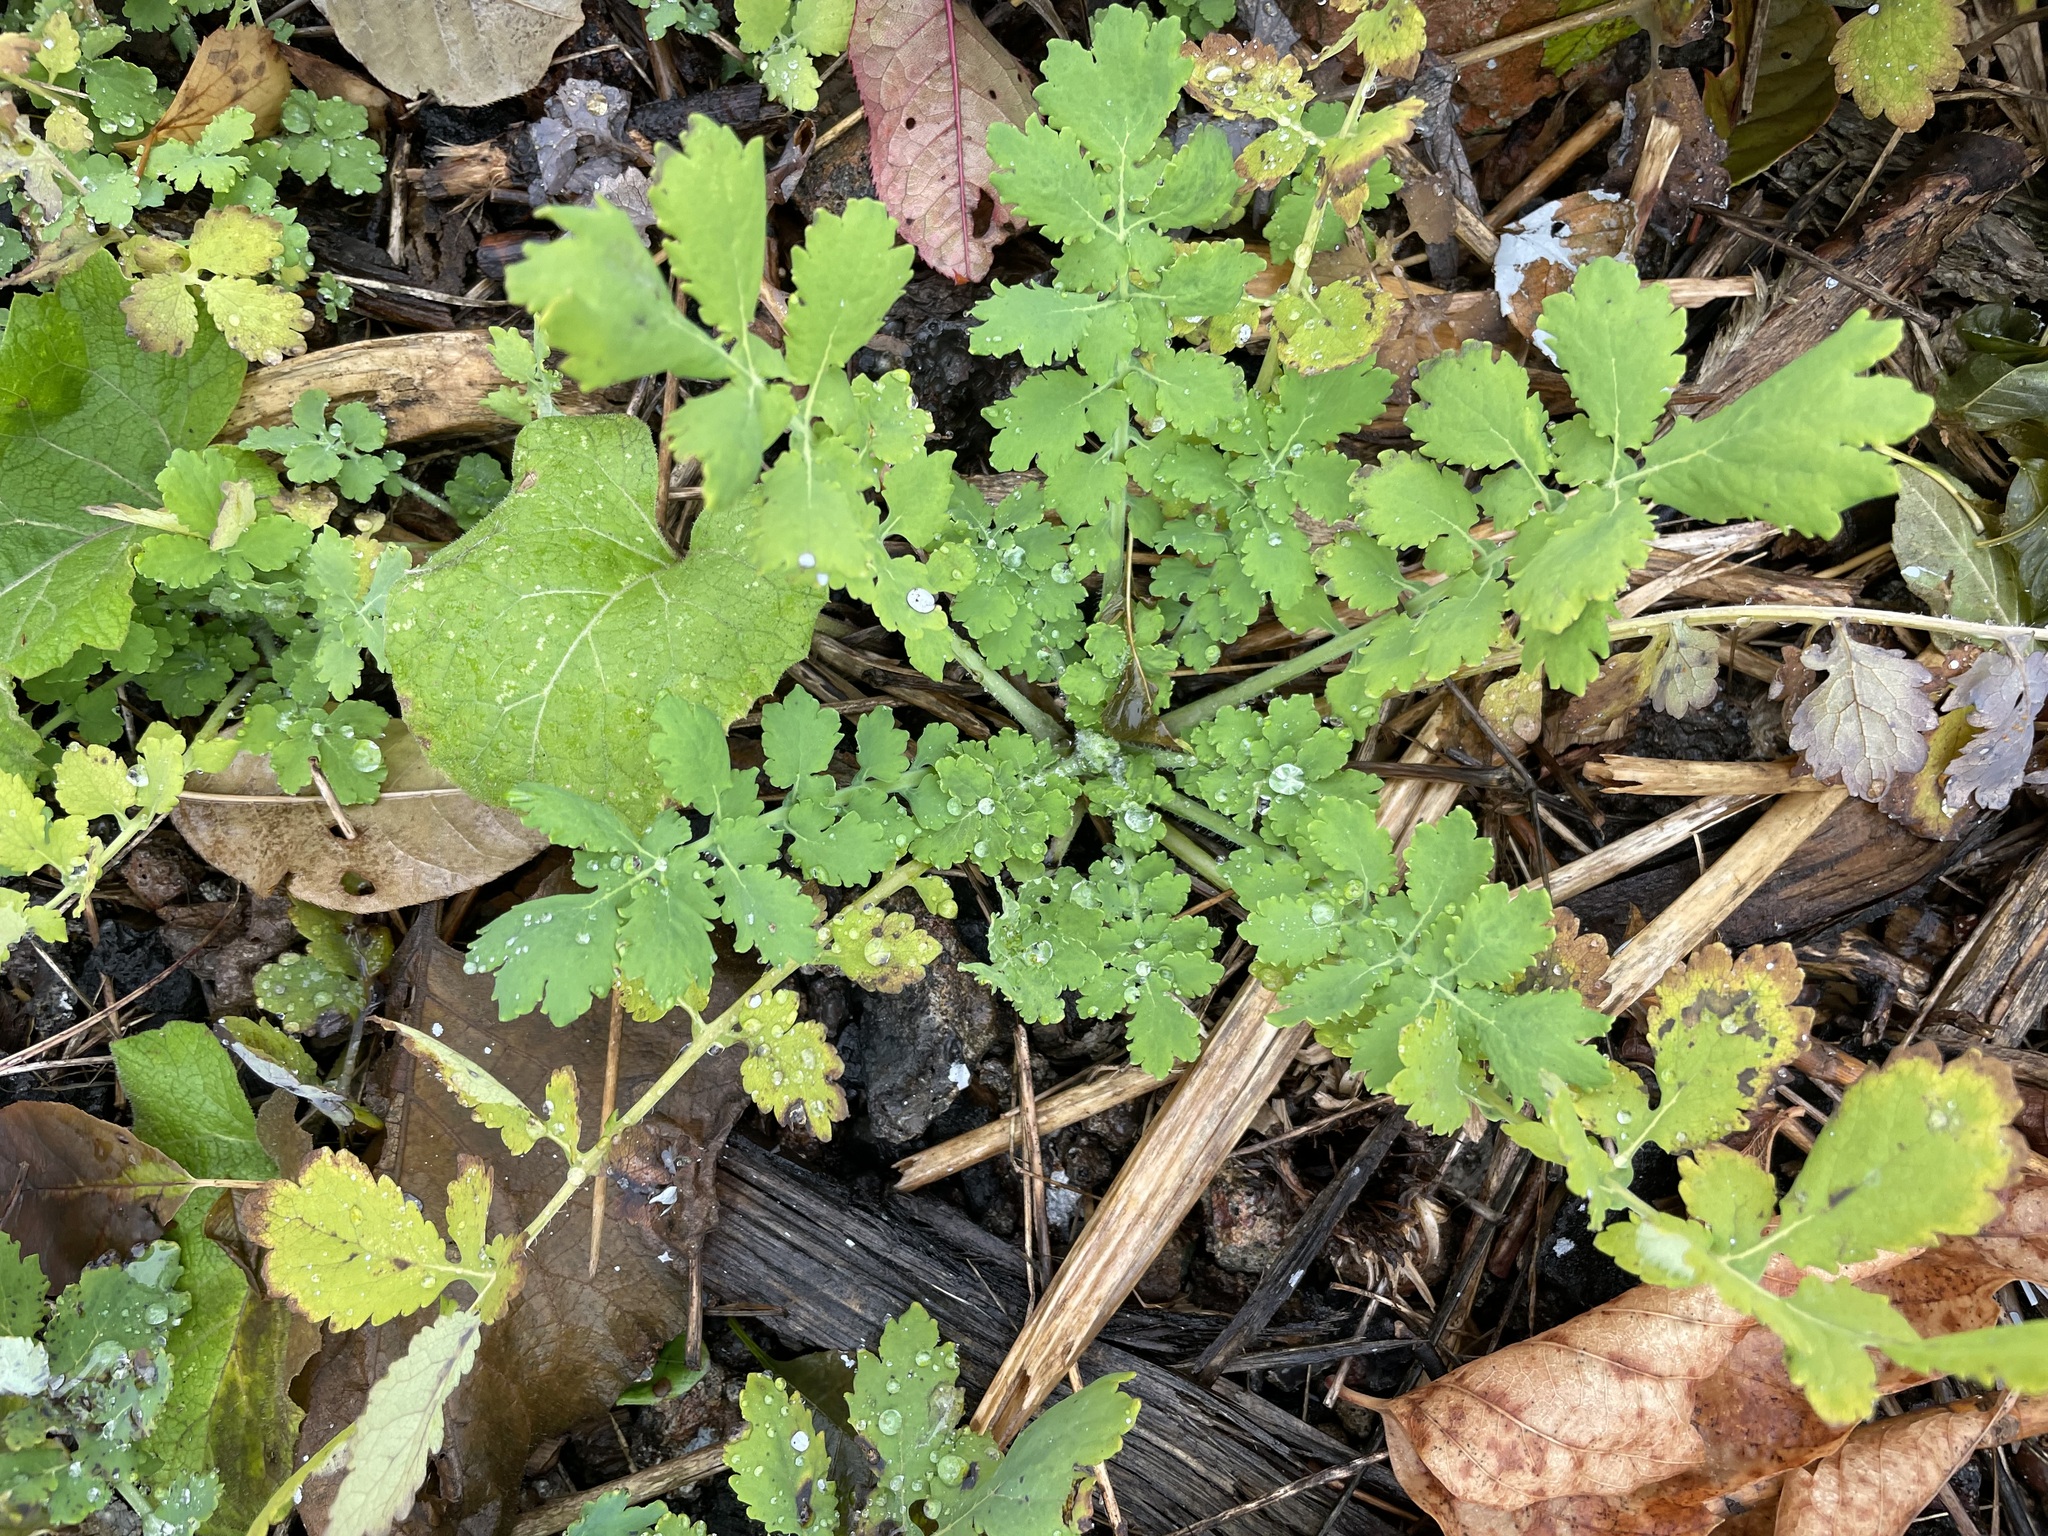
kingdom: Plantae
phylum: Tracheophyta
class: Magnoliopsida
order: Ranunculales
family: Papaveraceae
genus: Chelidonium
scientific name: Chelidonium majus
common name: Greater celandine
